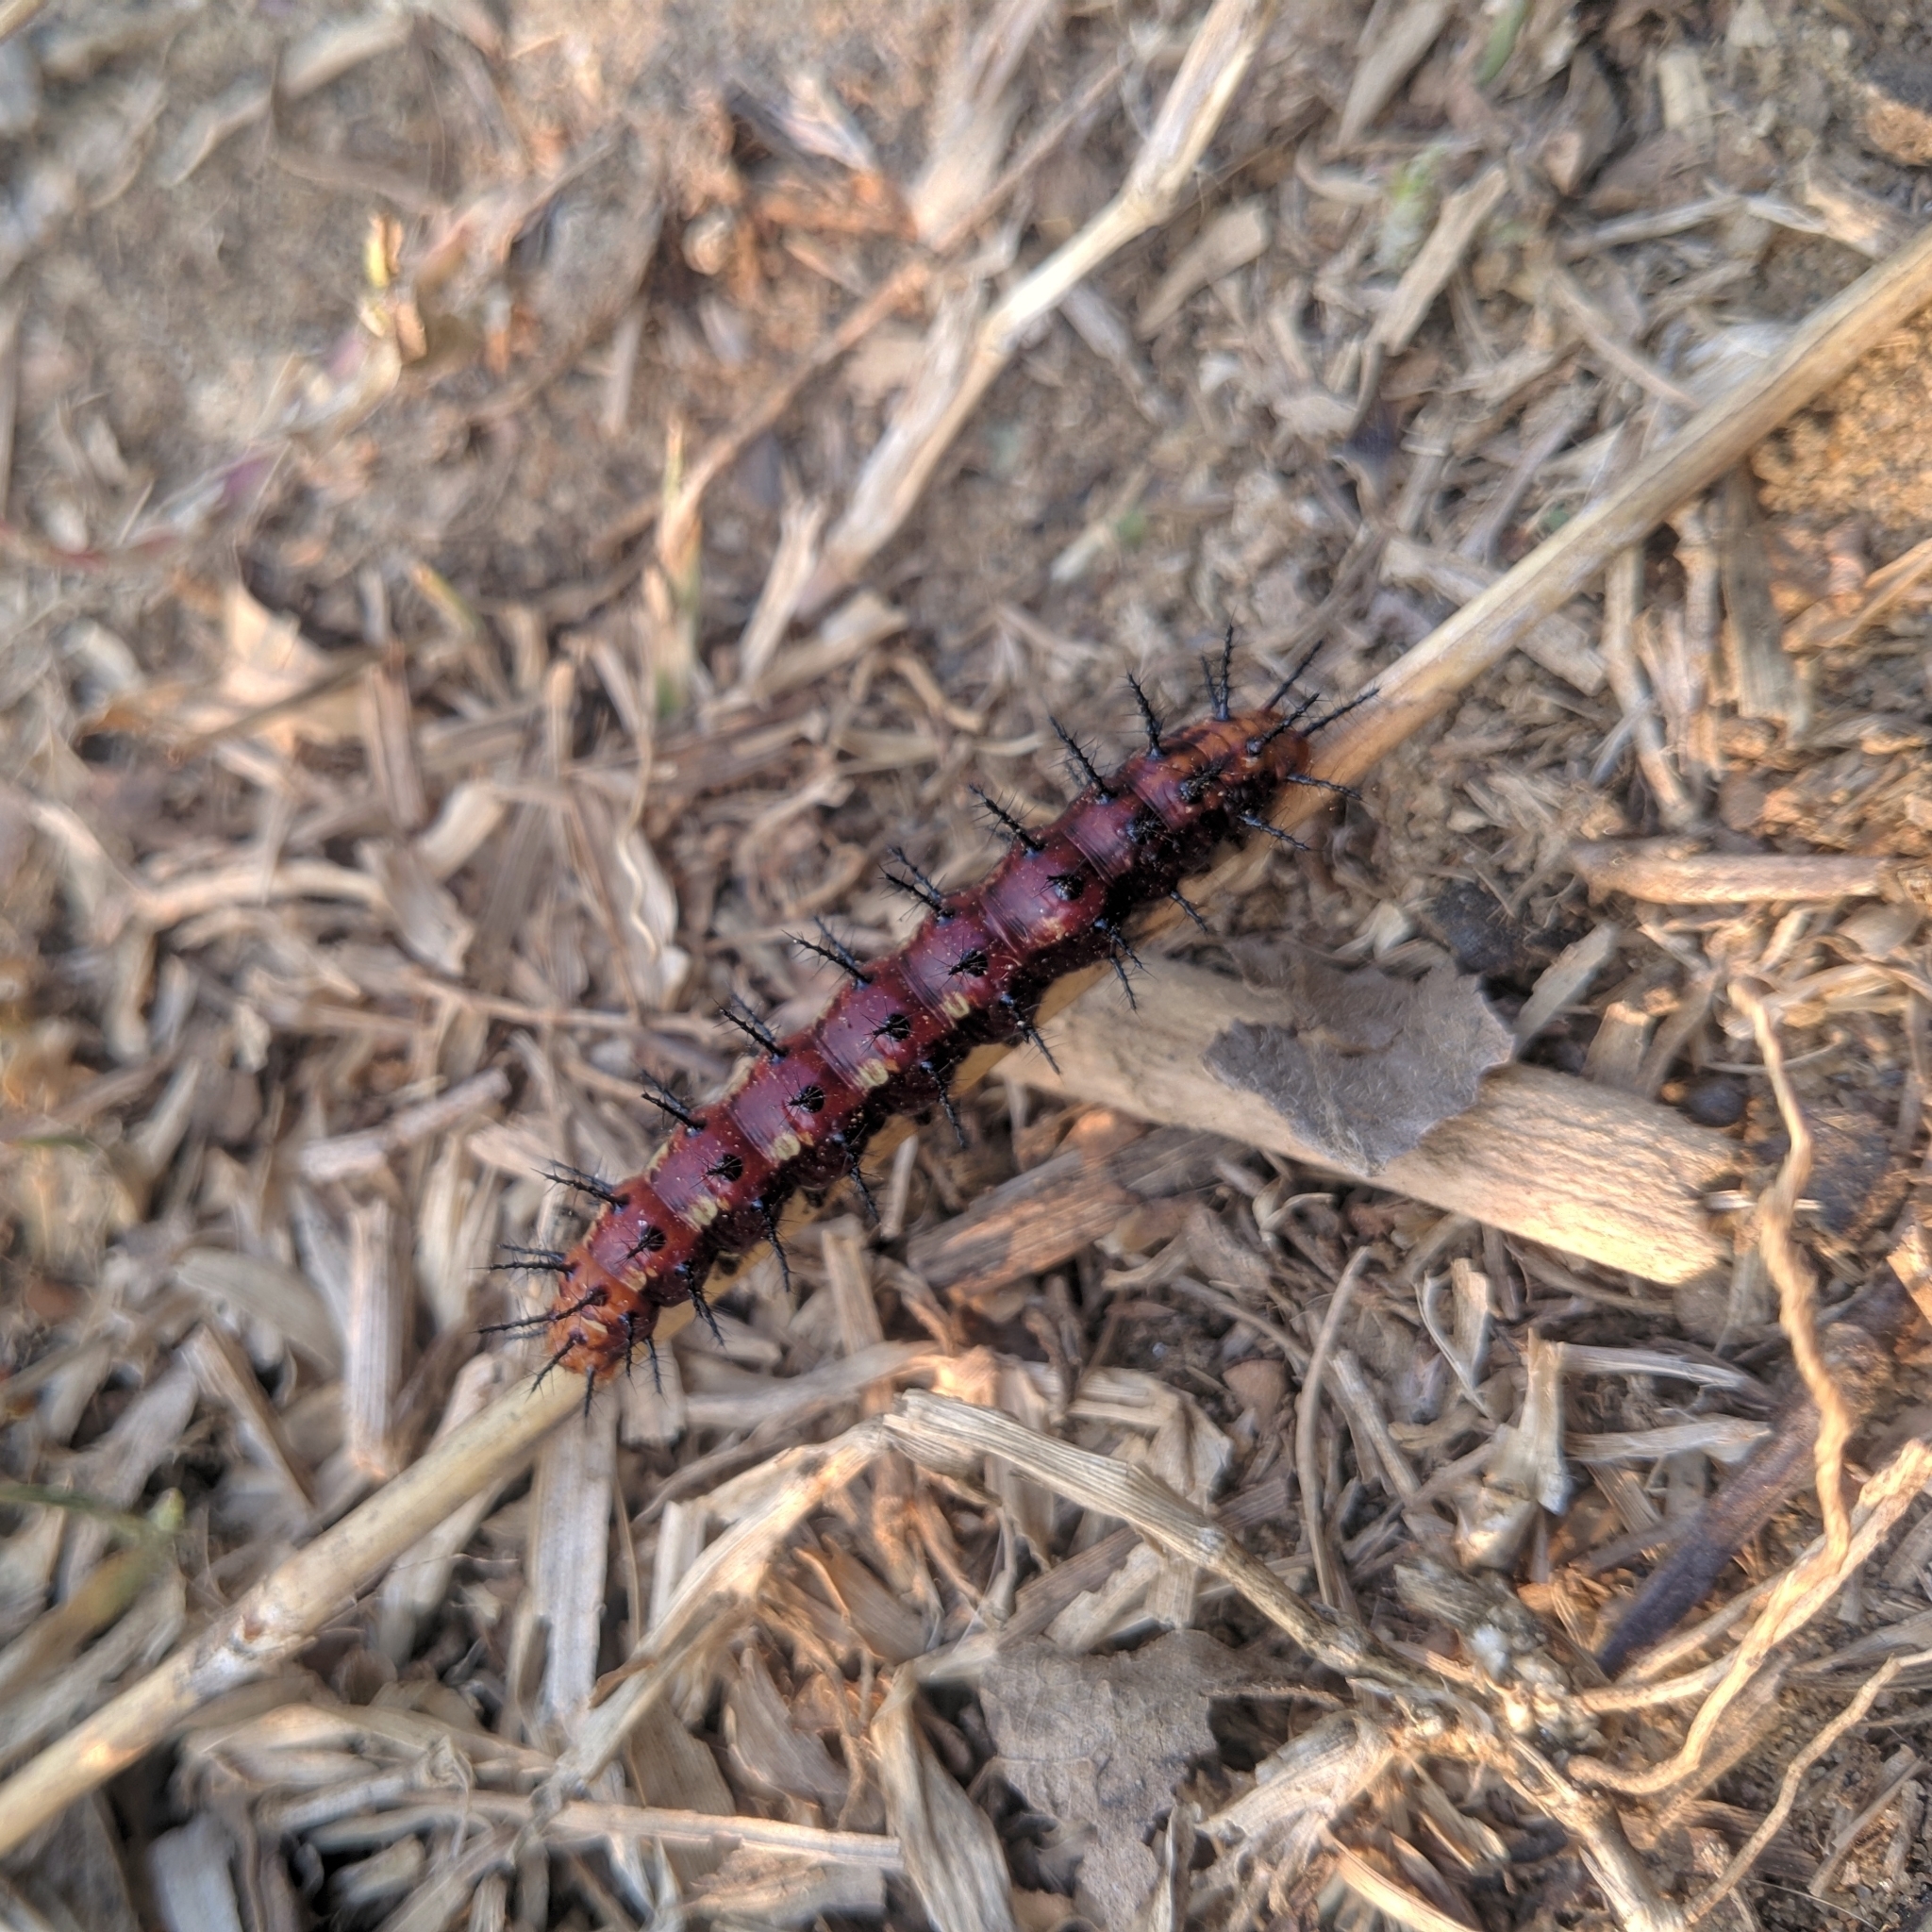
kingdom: Animalia
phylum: Arthropoda
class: Insecta
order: Lepidoptera
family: Nymphalidae
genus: Acraea
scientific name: Acraea terpsicore
